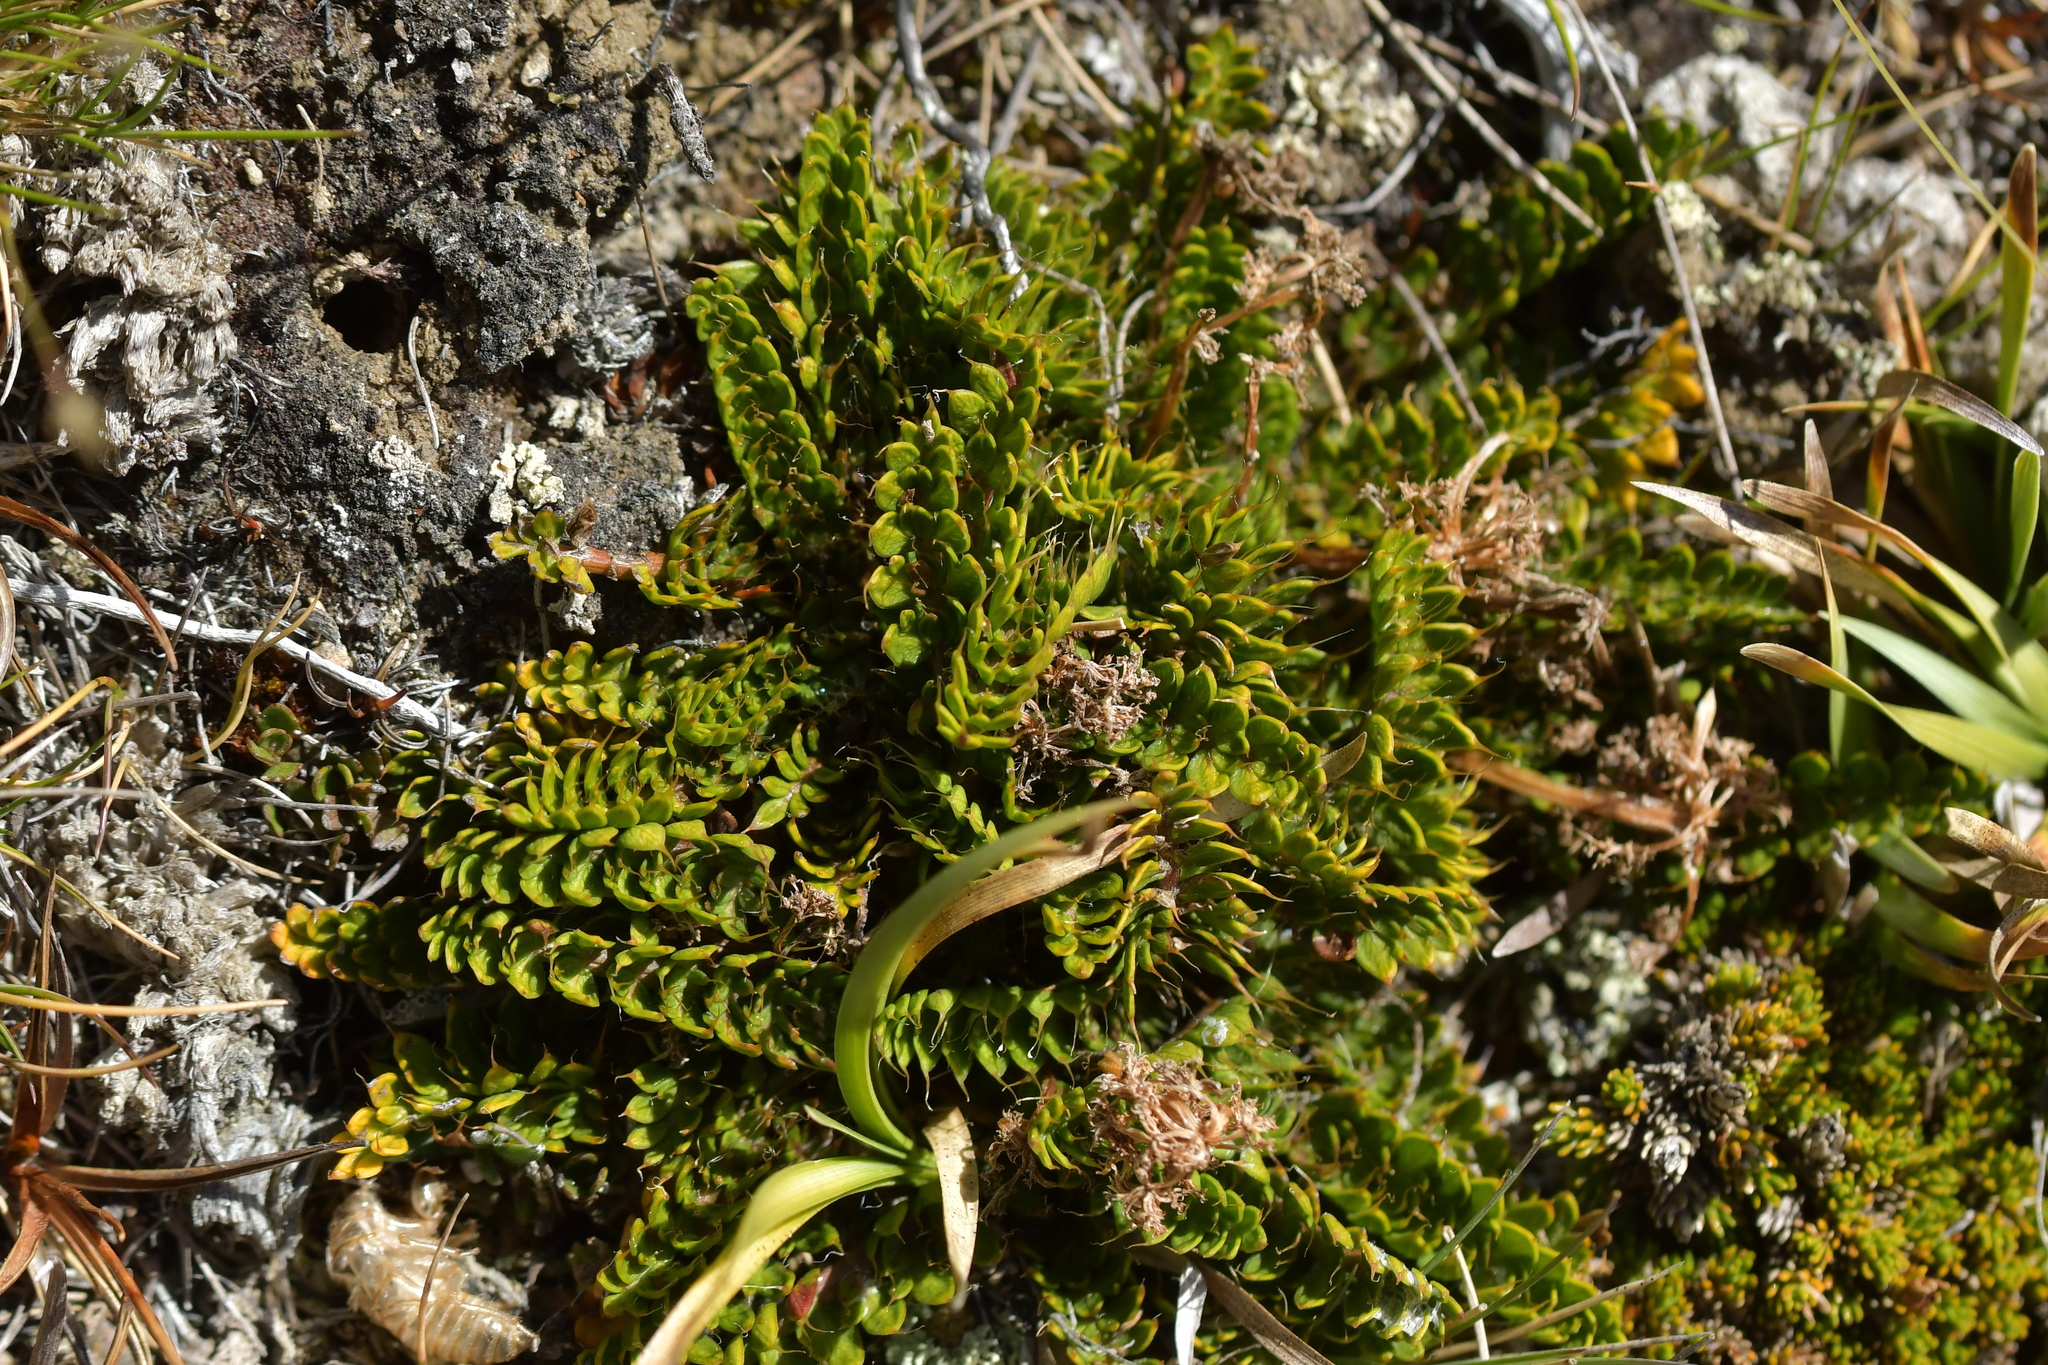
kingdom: Plantae
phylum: Tracheophyta
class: Magnoliopsida
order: Apiales
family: Apiaceae
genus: Anisotome
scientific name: Anisotome flexuosa
